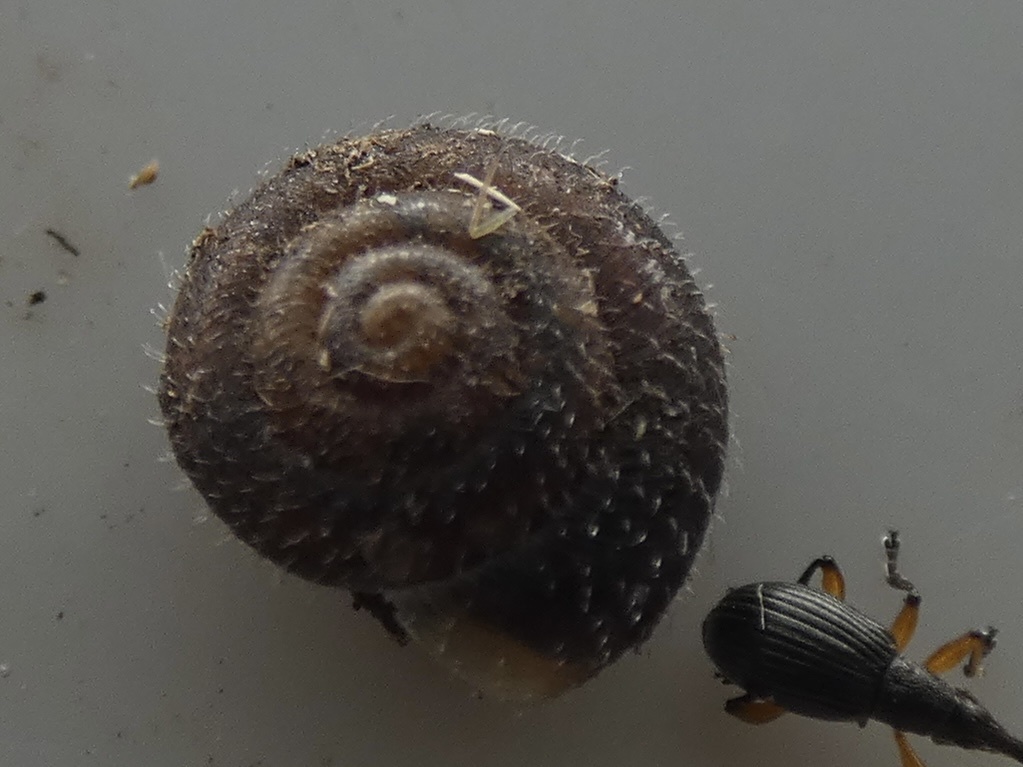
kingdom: Animalia
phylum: Mollusca
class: Gastropoda
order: Stylommatophora
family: Hygromiidae
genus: Trochulus
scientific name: Trochulus hispidus
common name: Hairy snail
